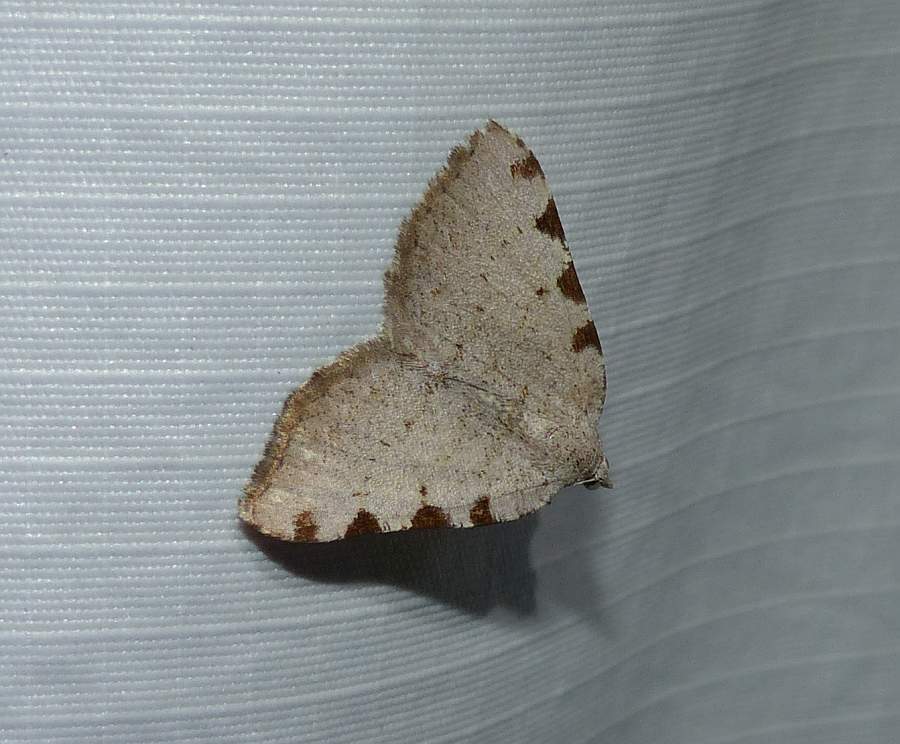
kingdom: Animalia
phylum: Arthropoda
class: Insecta
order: Lepidoptera
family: Geometridae
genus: Macaria
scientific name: Macaria coortaria
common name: Four-spotted granite
